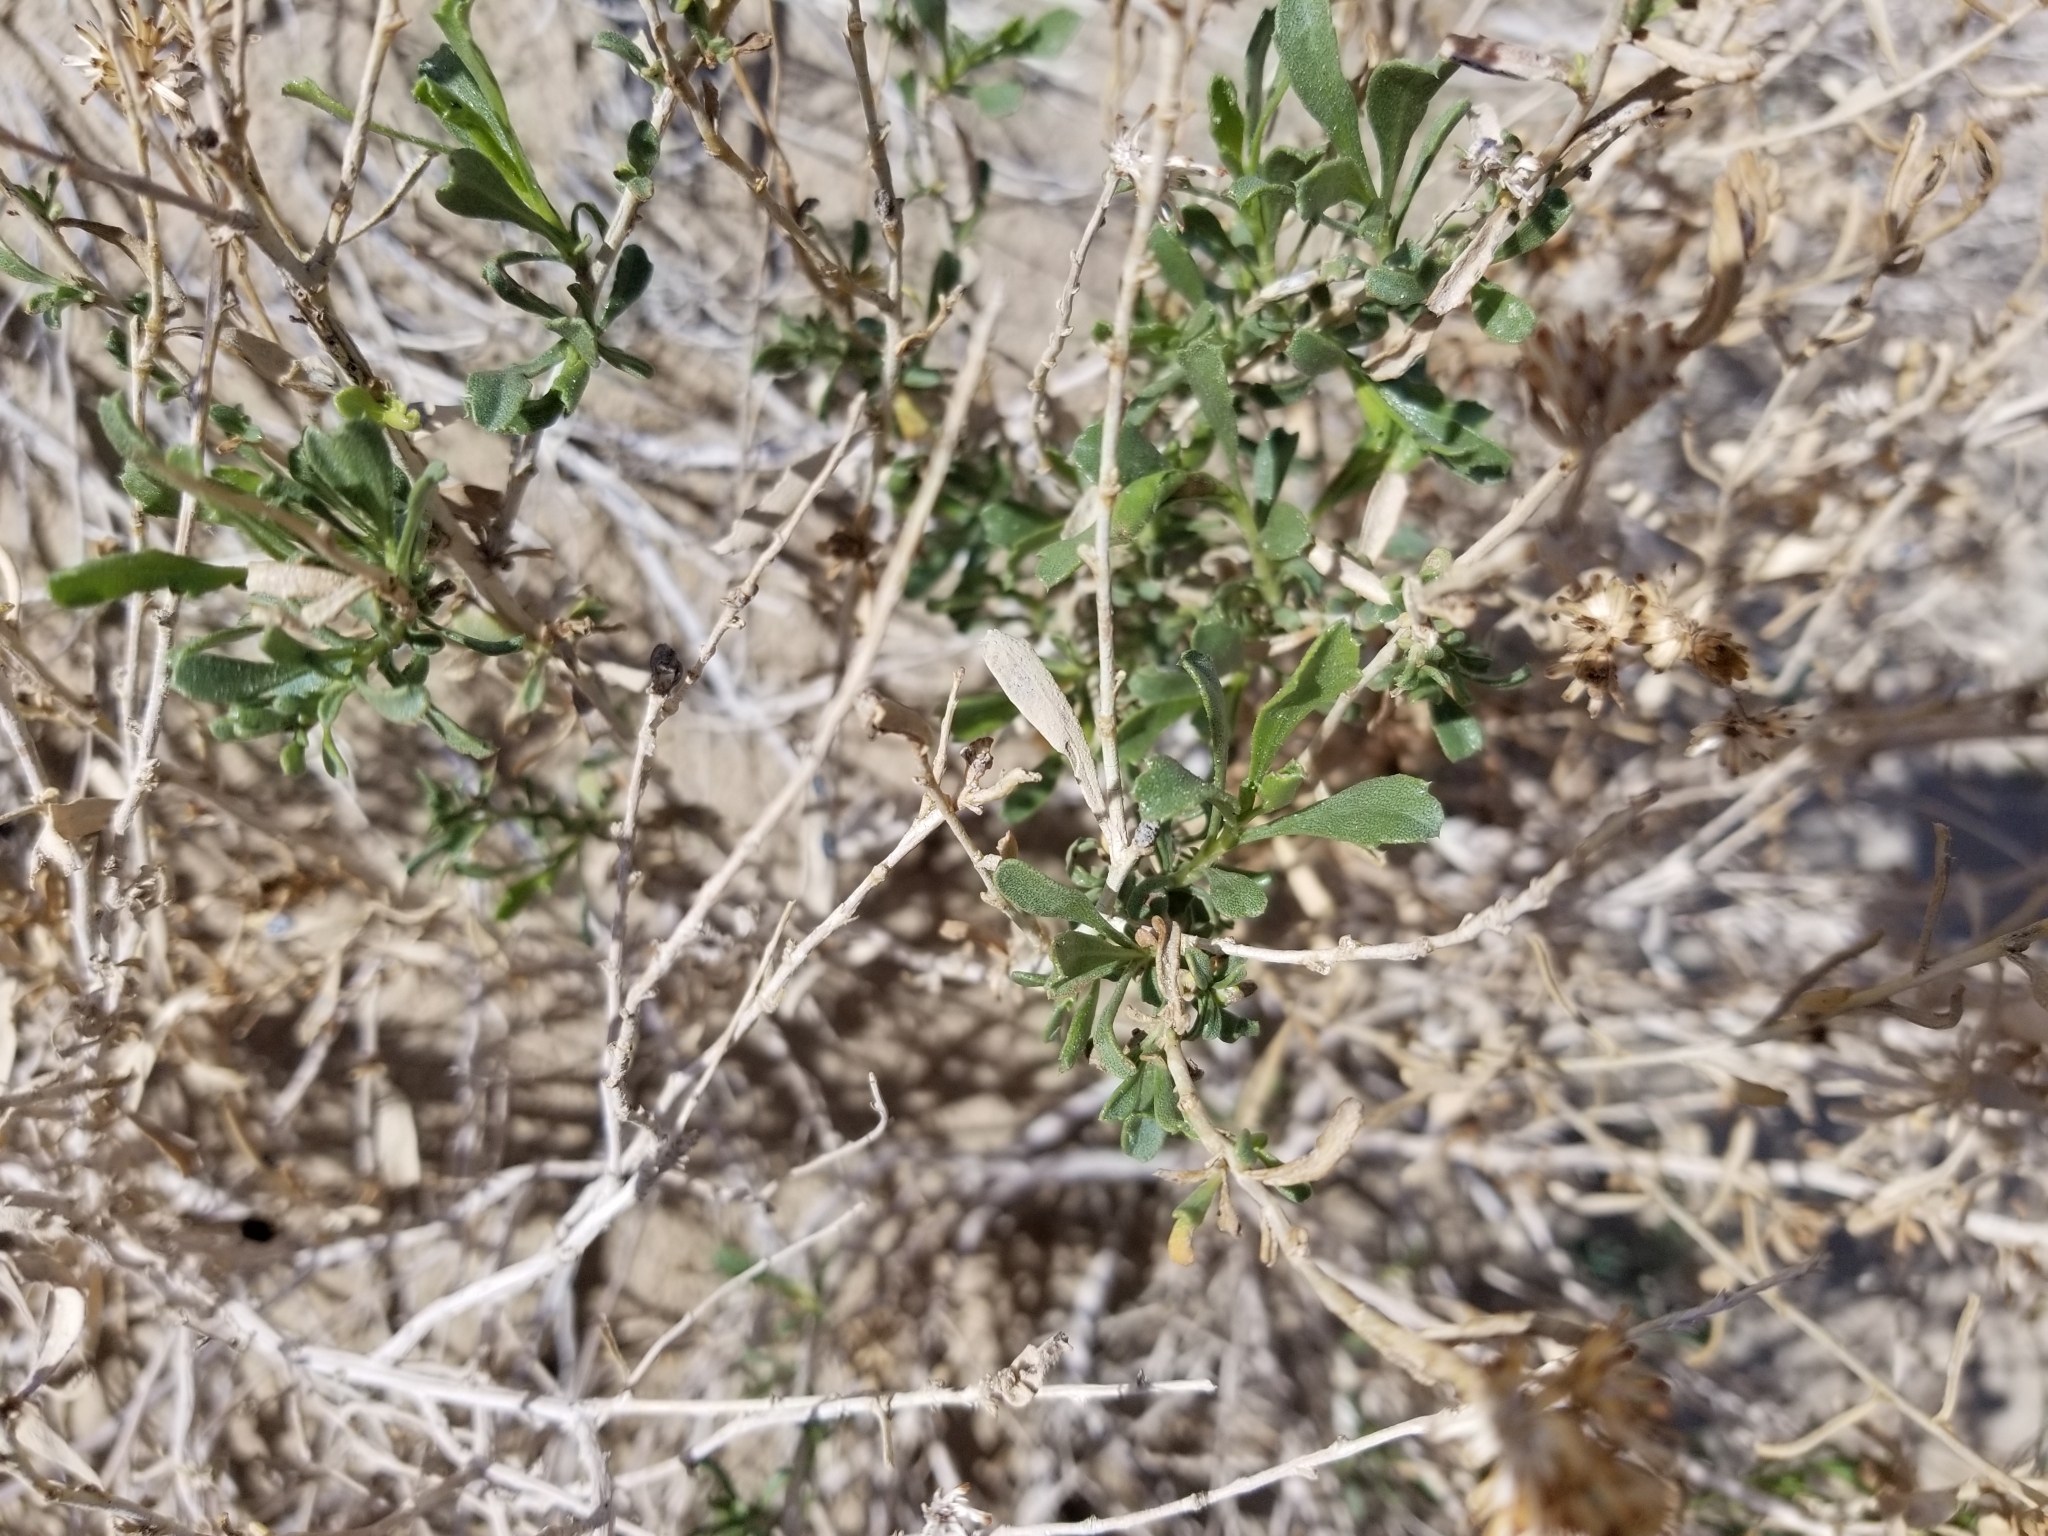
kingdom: Plantae
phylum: Tracheophyta
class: Magnoliopsida
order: Asterales
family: Asteraceae
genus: Isocoma
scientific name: Isocoma acradenia
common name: Alkali jimmyweed
